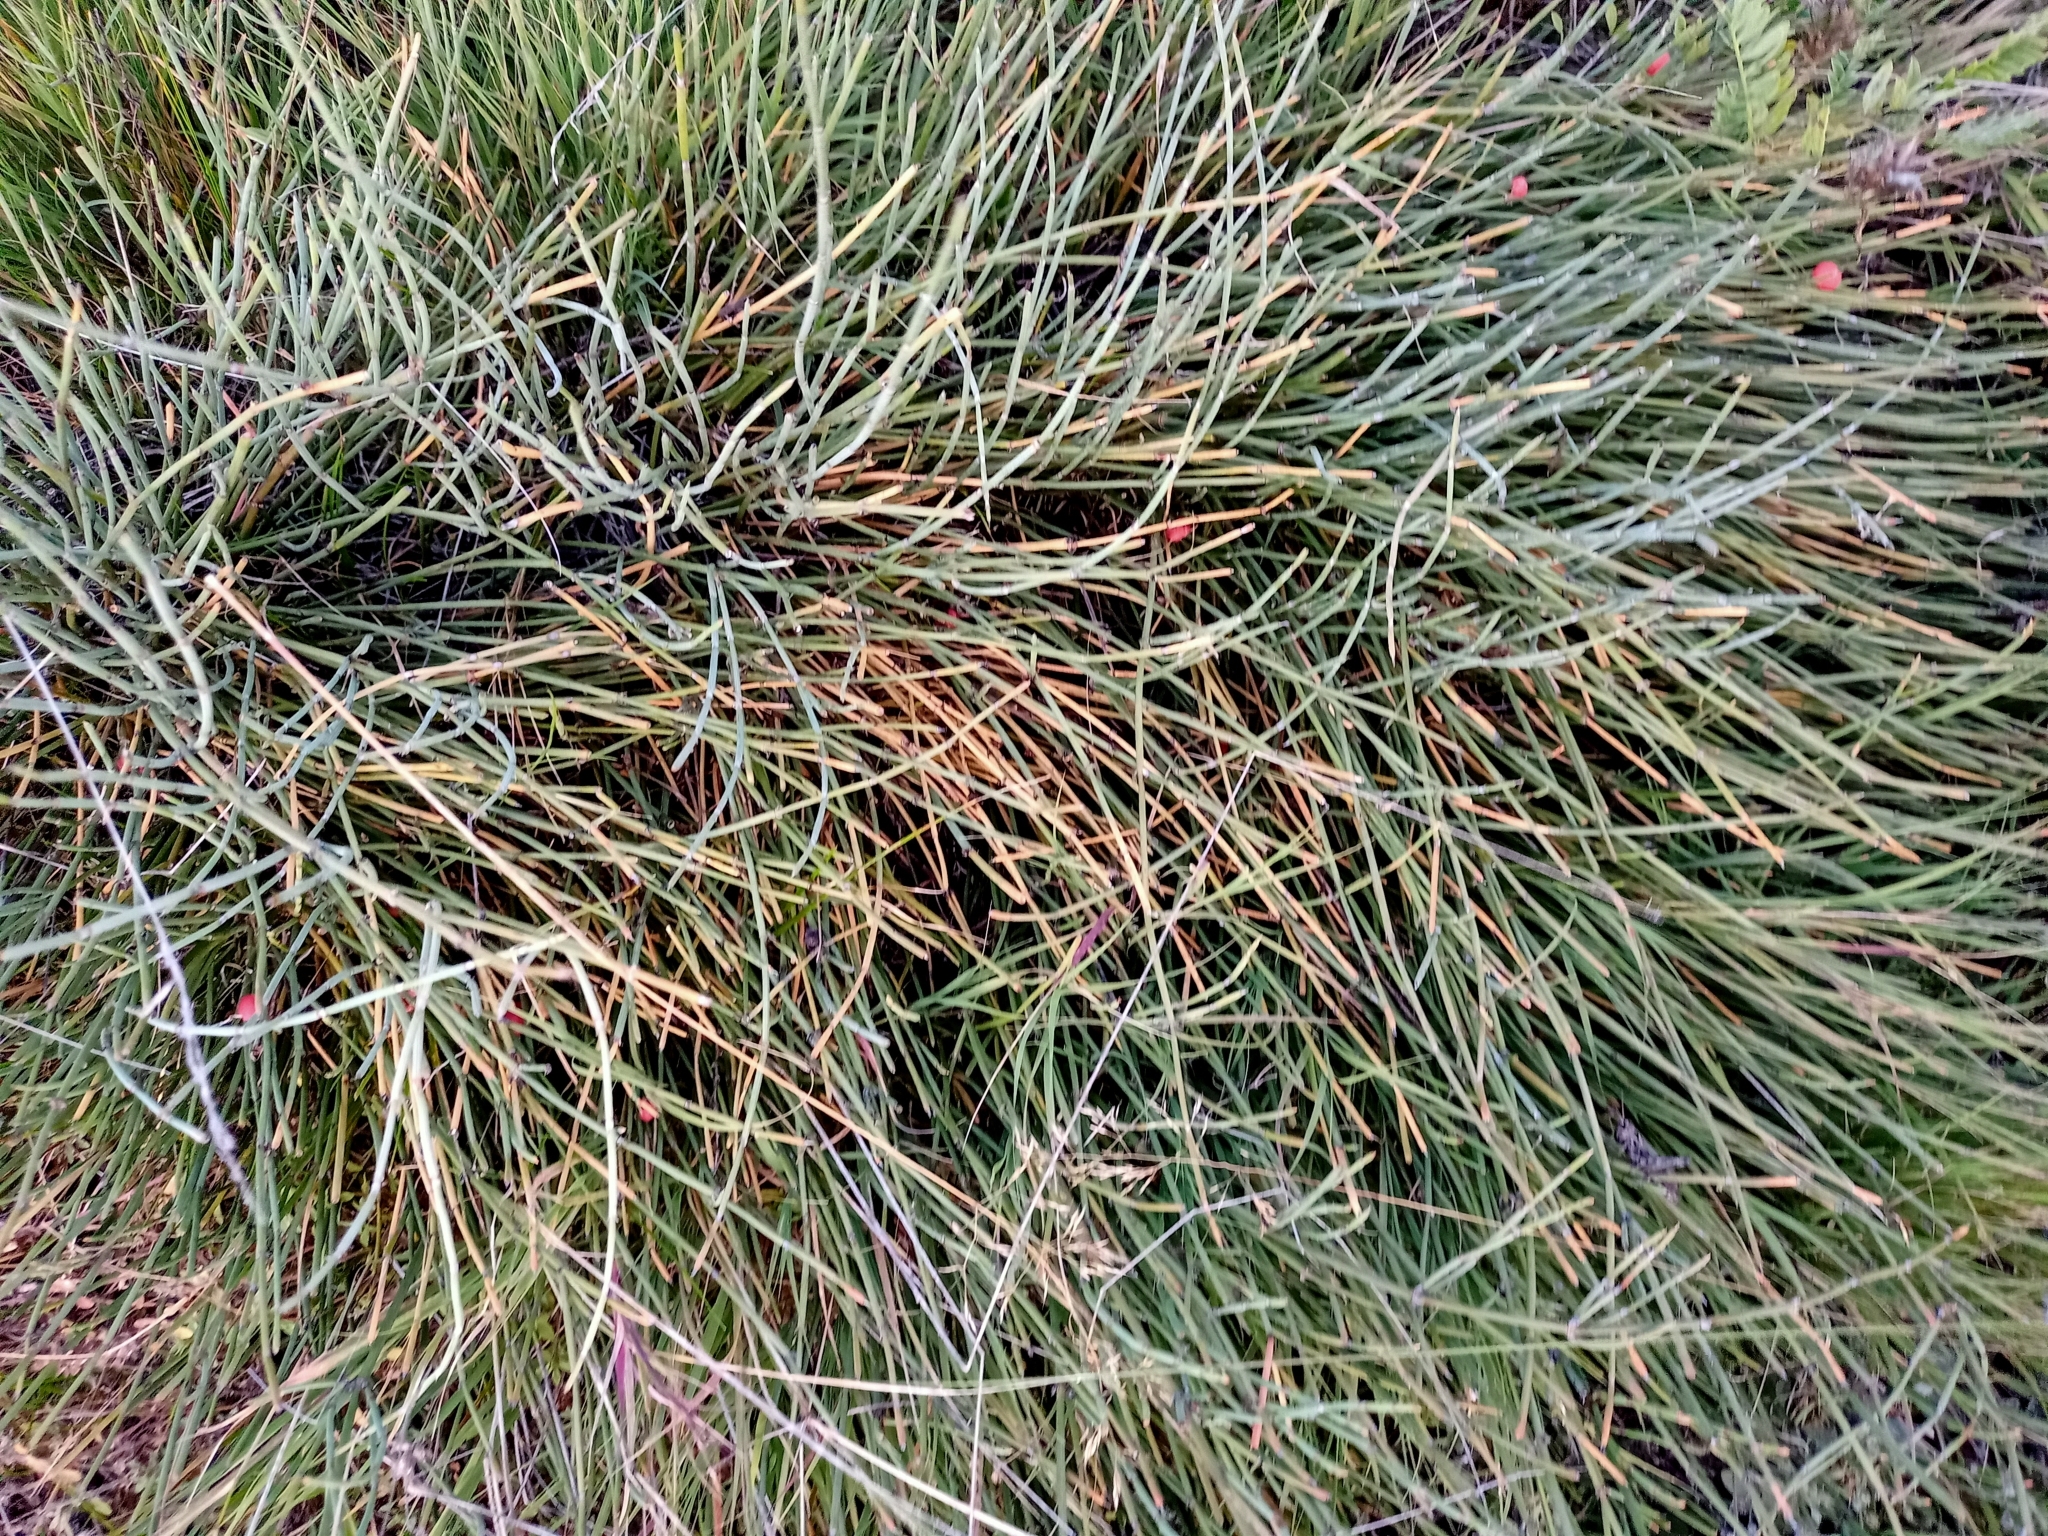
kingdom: Plantae
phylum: Tracheophyta
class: Gnetopsida
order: Ephedrales
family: Ephedraceae
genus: Ephedra
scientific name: Ephedra monosperma
